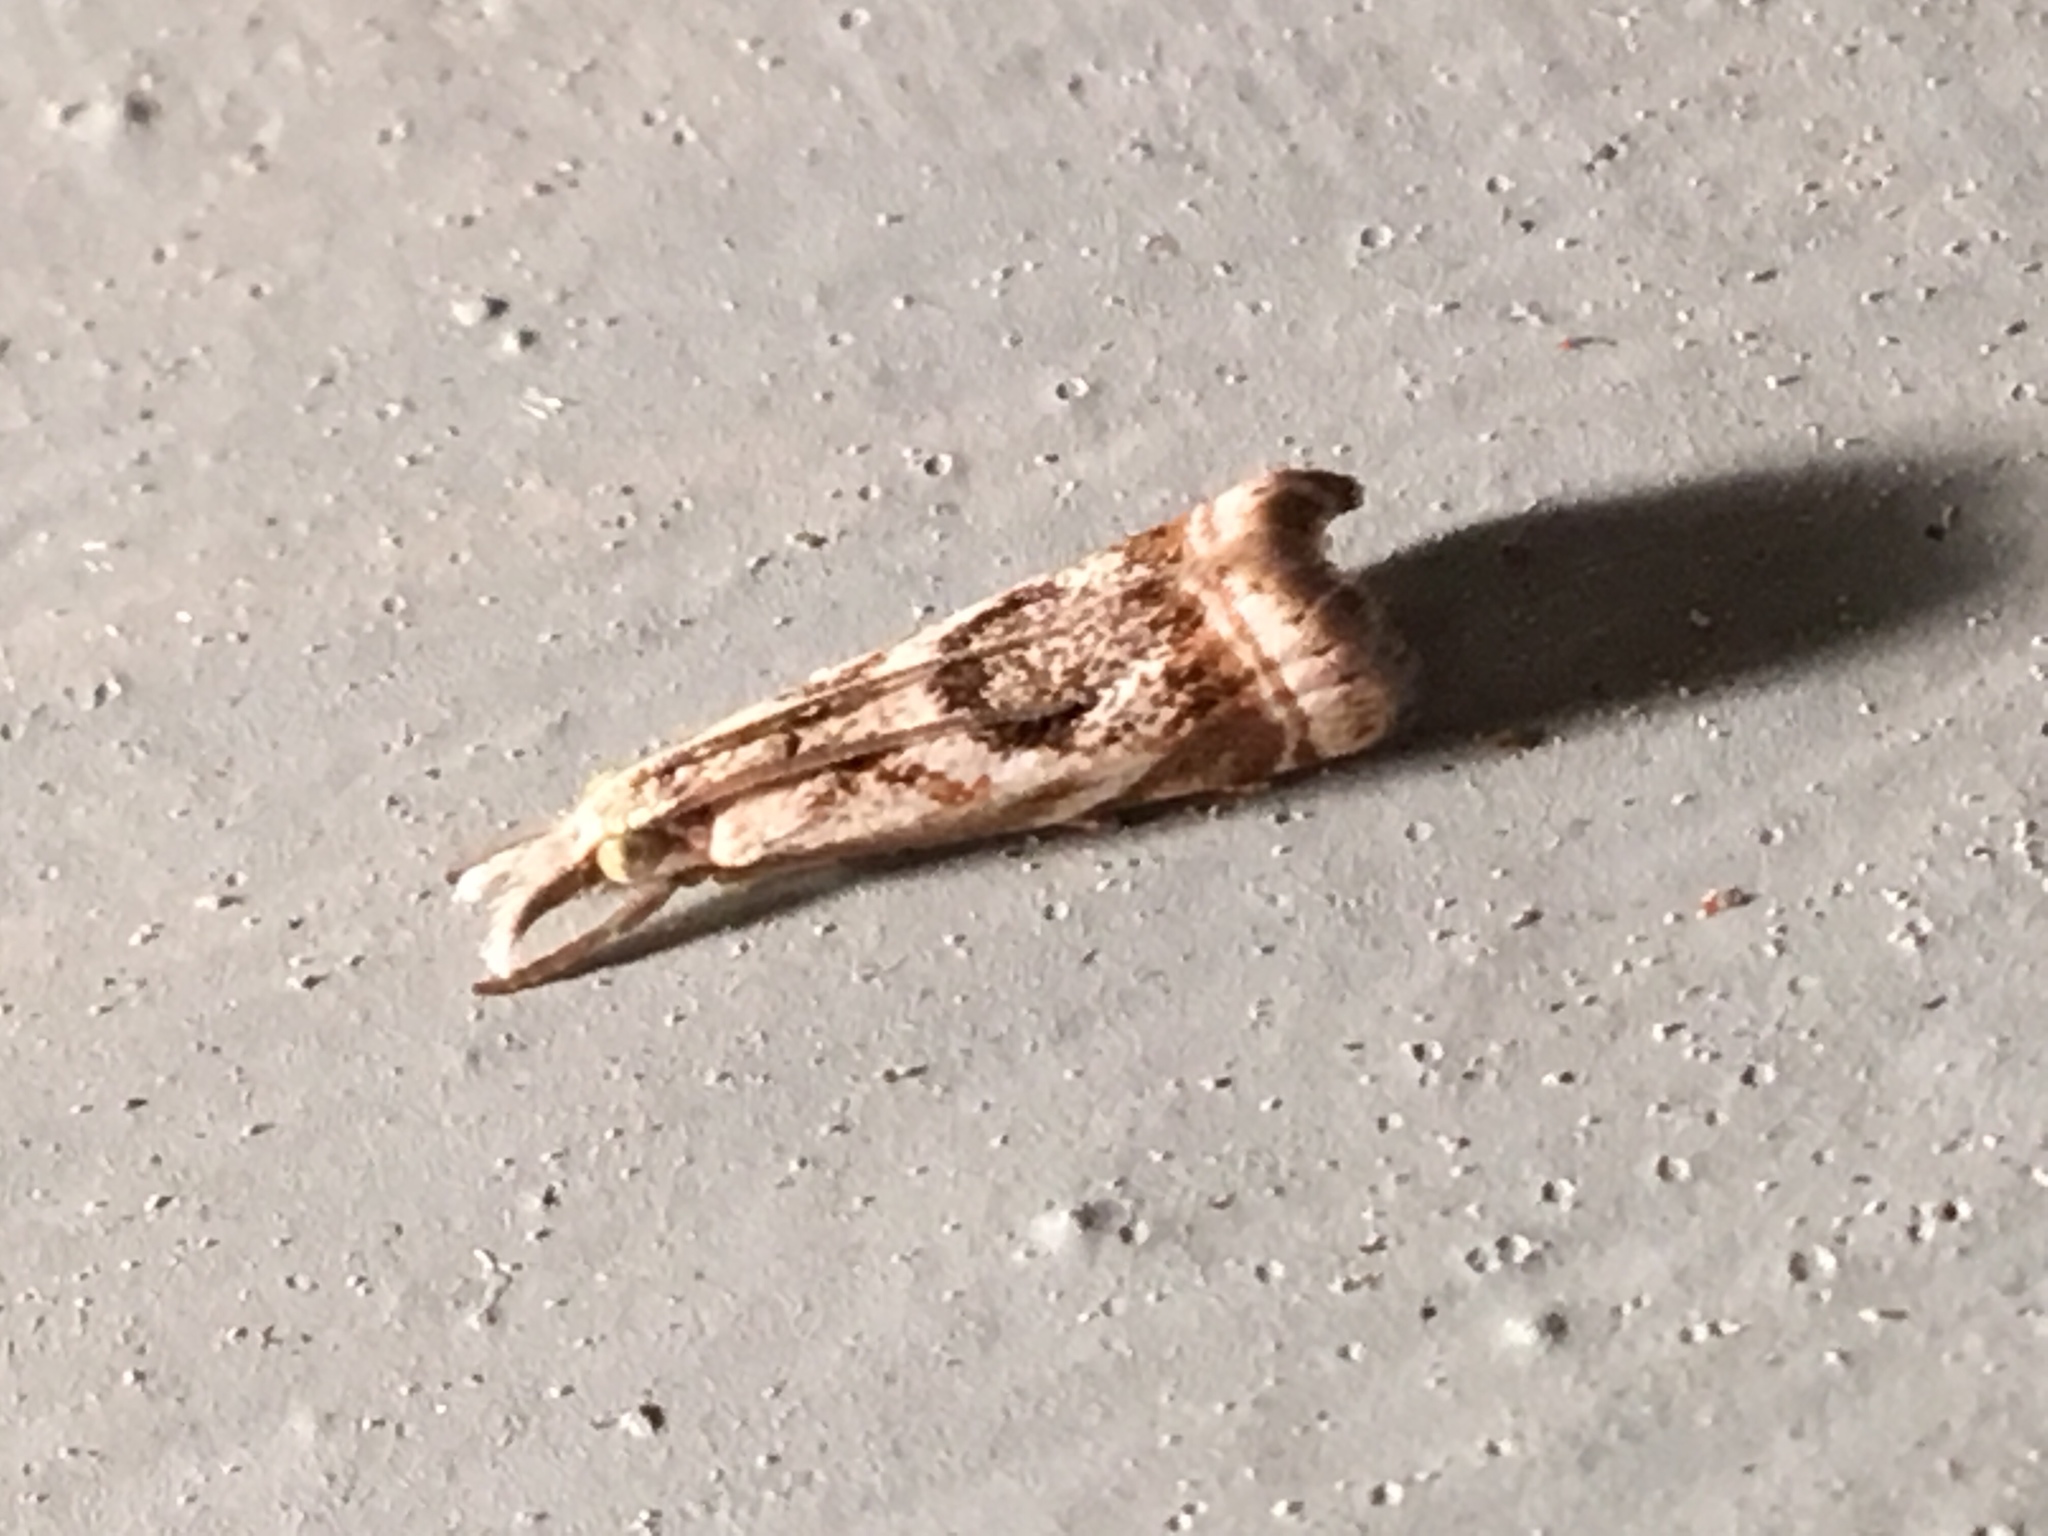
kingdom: Animalia
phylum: Arthropoda
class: Insecta
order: Lepidoptera
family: Crambidae
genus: Microcrambus
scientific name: Microcrambus elegans
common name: Elegant grass-veneer
